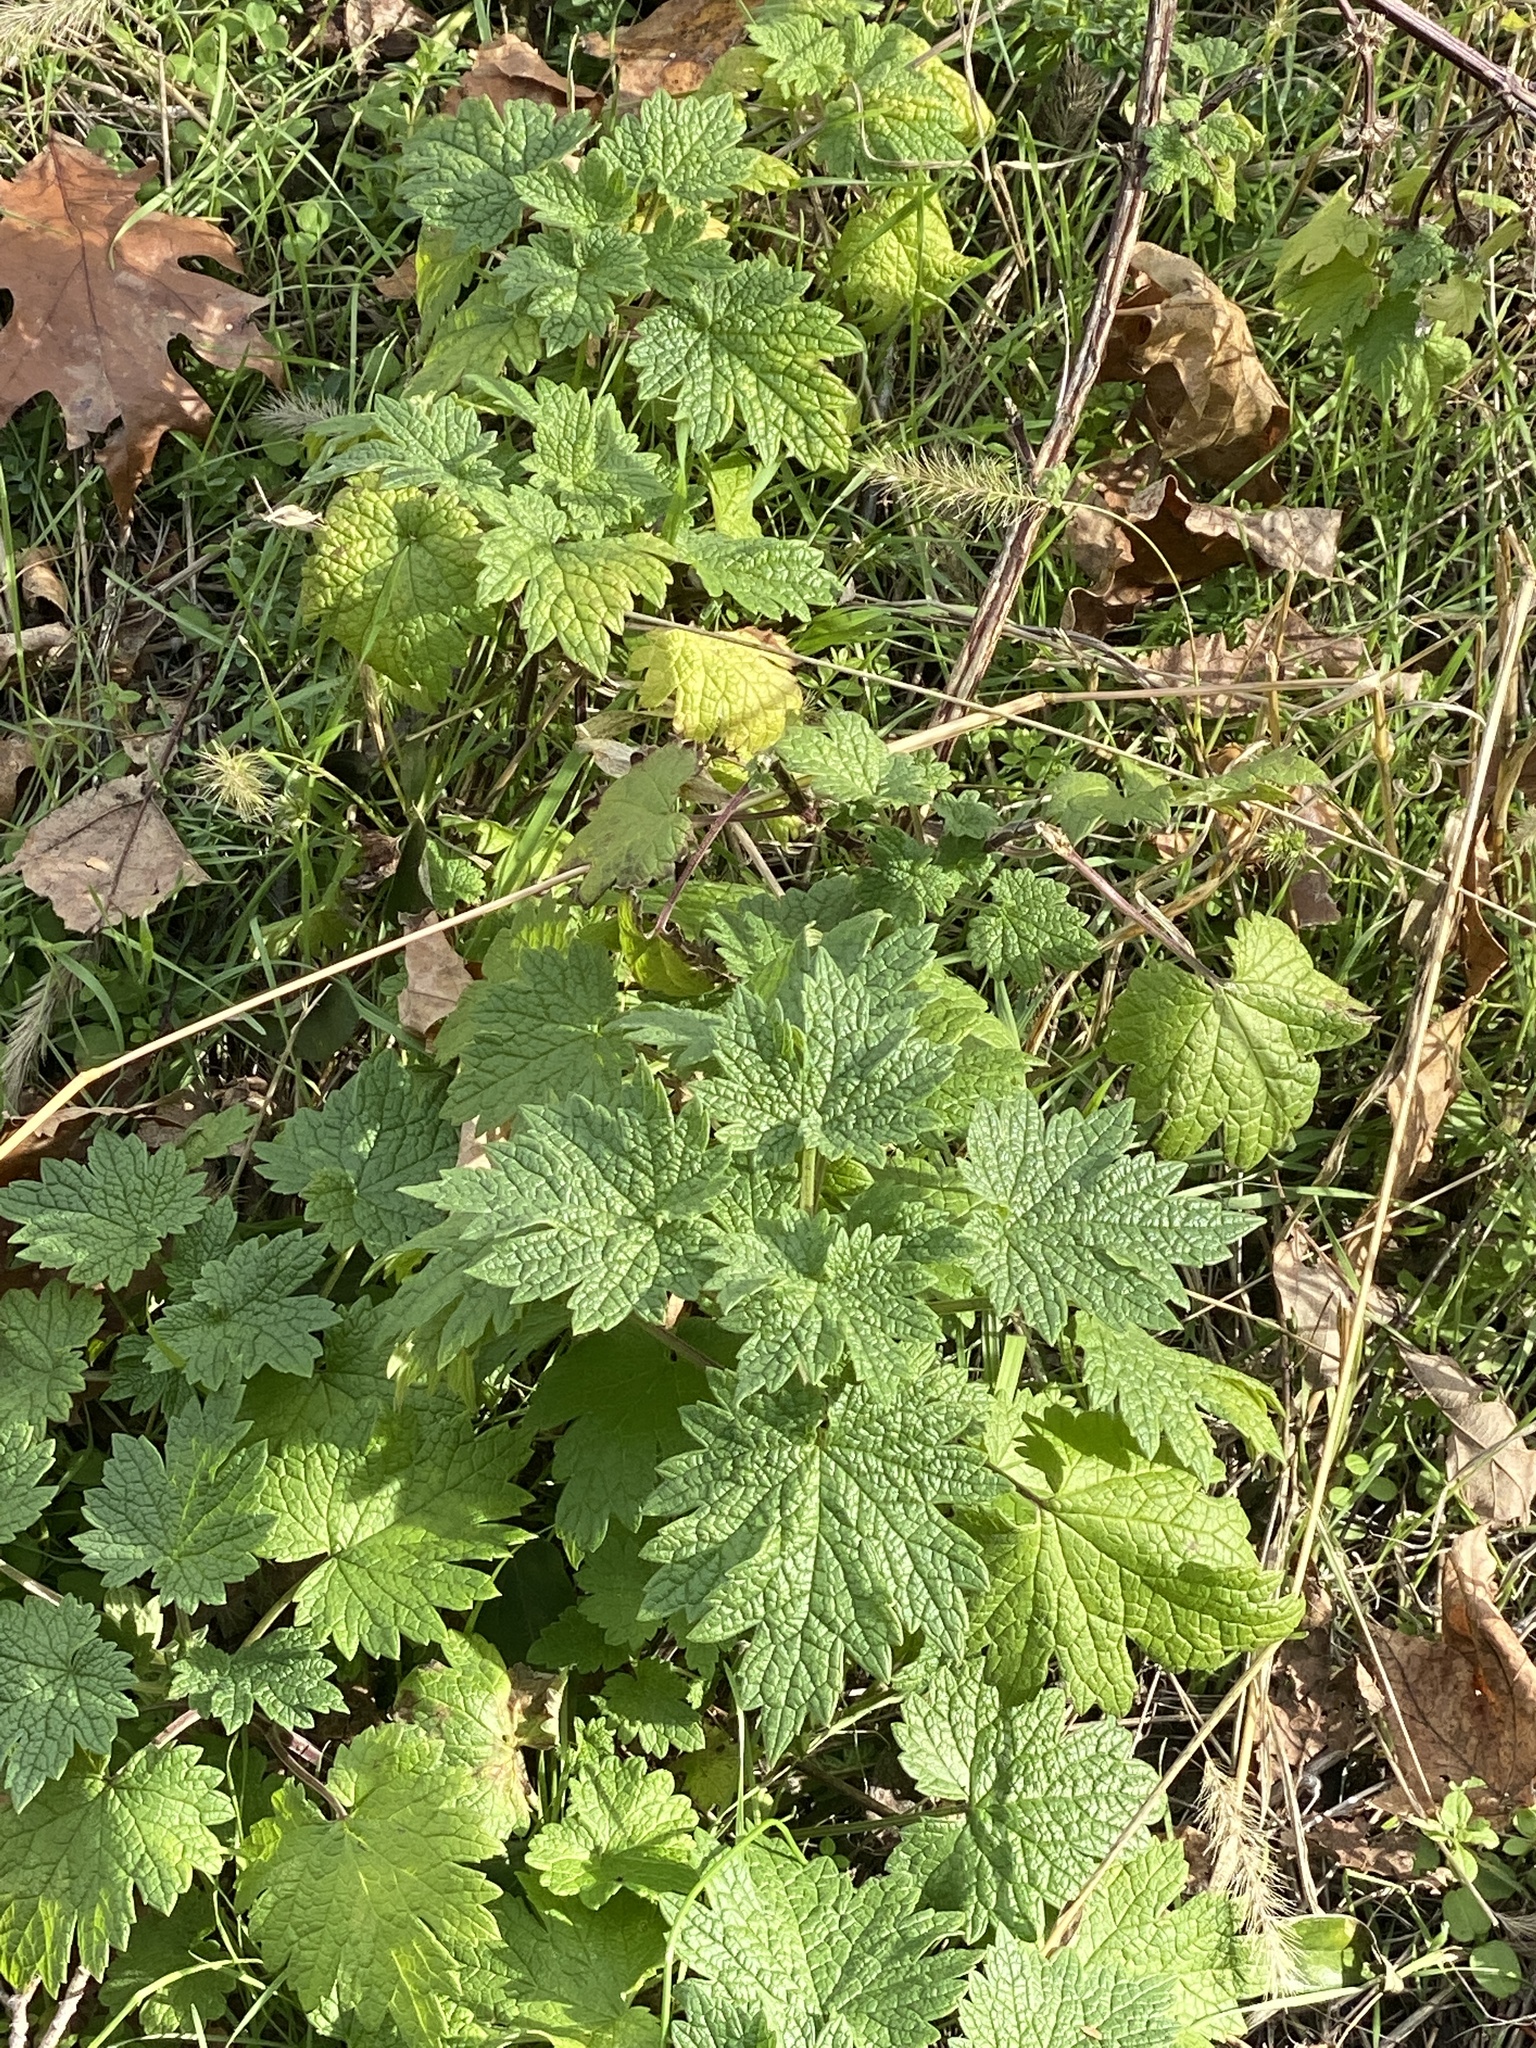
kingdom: Plantae
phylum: Tracheophyta
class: Magnoliopsida
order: Lamiales
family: Lamiaceae
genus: Leonurus
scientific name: Leonurus cardiaca
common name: Motherwort
